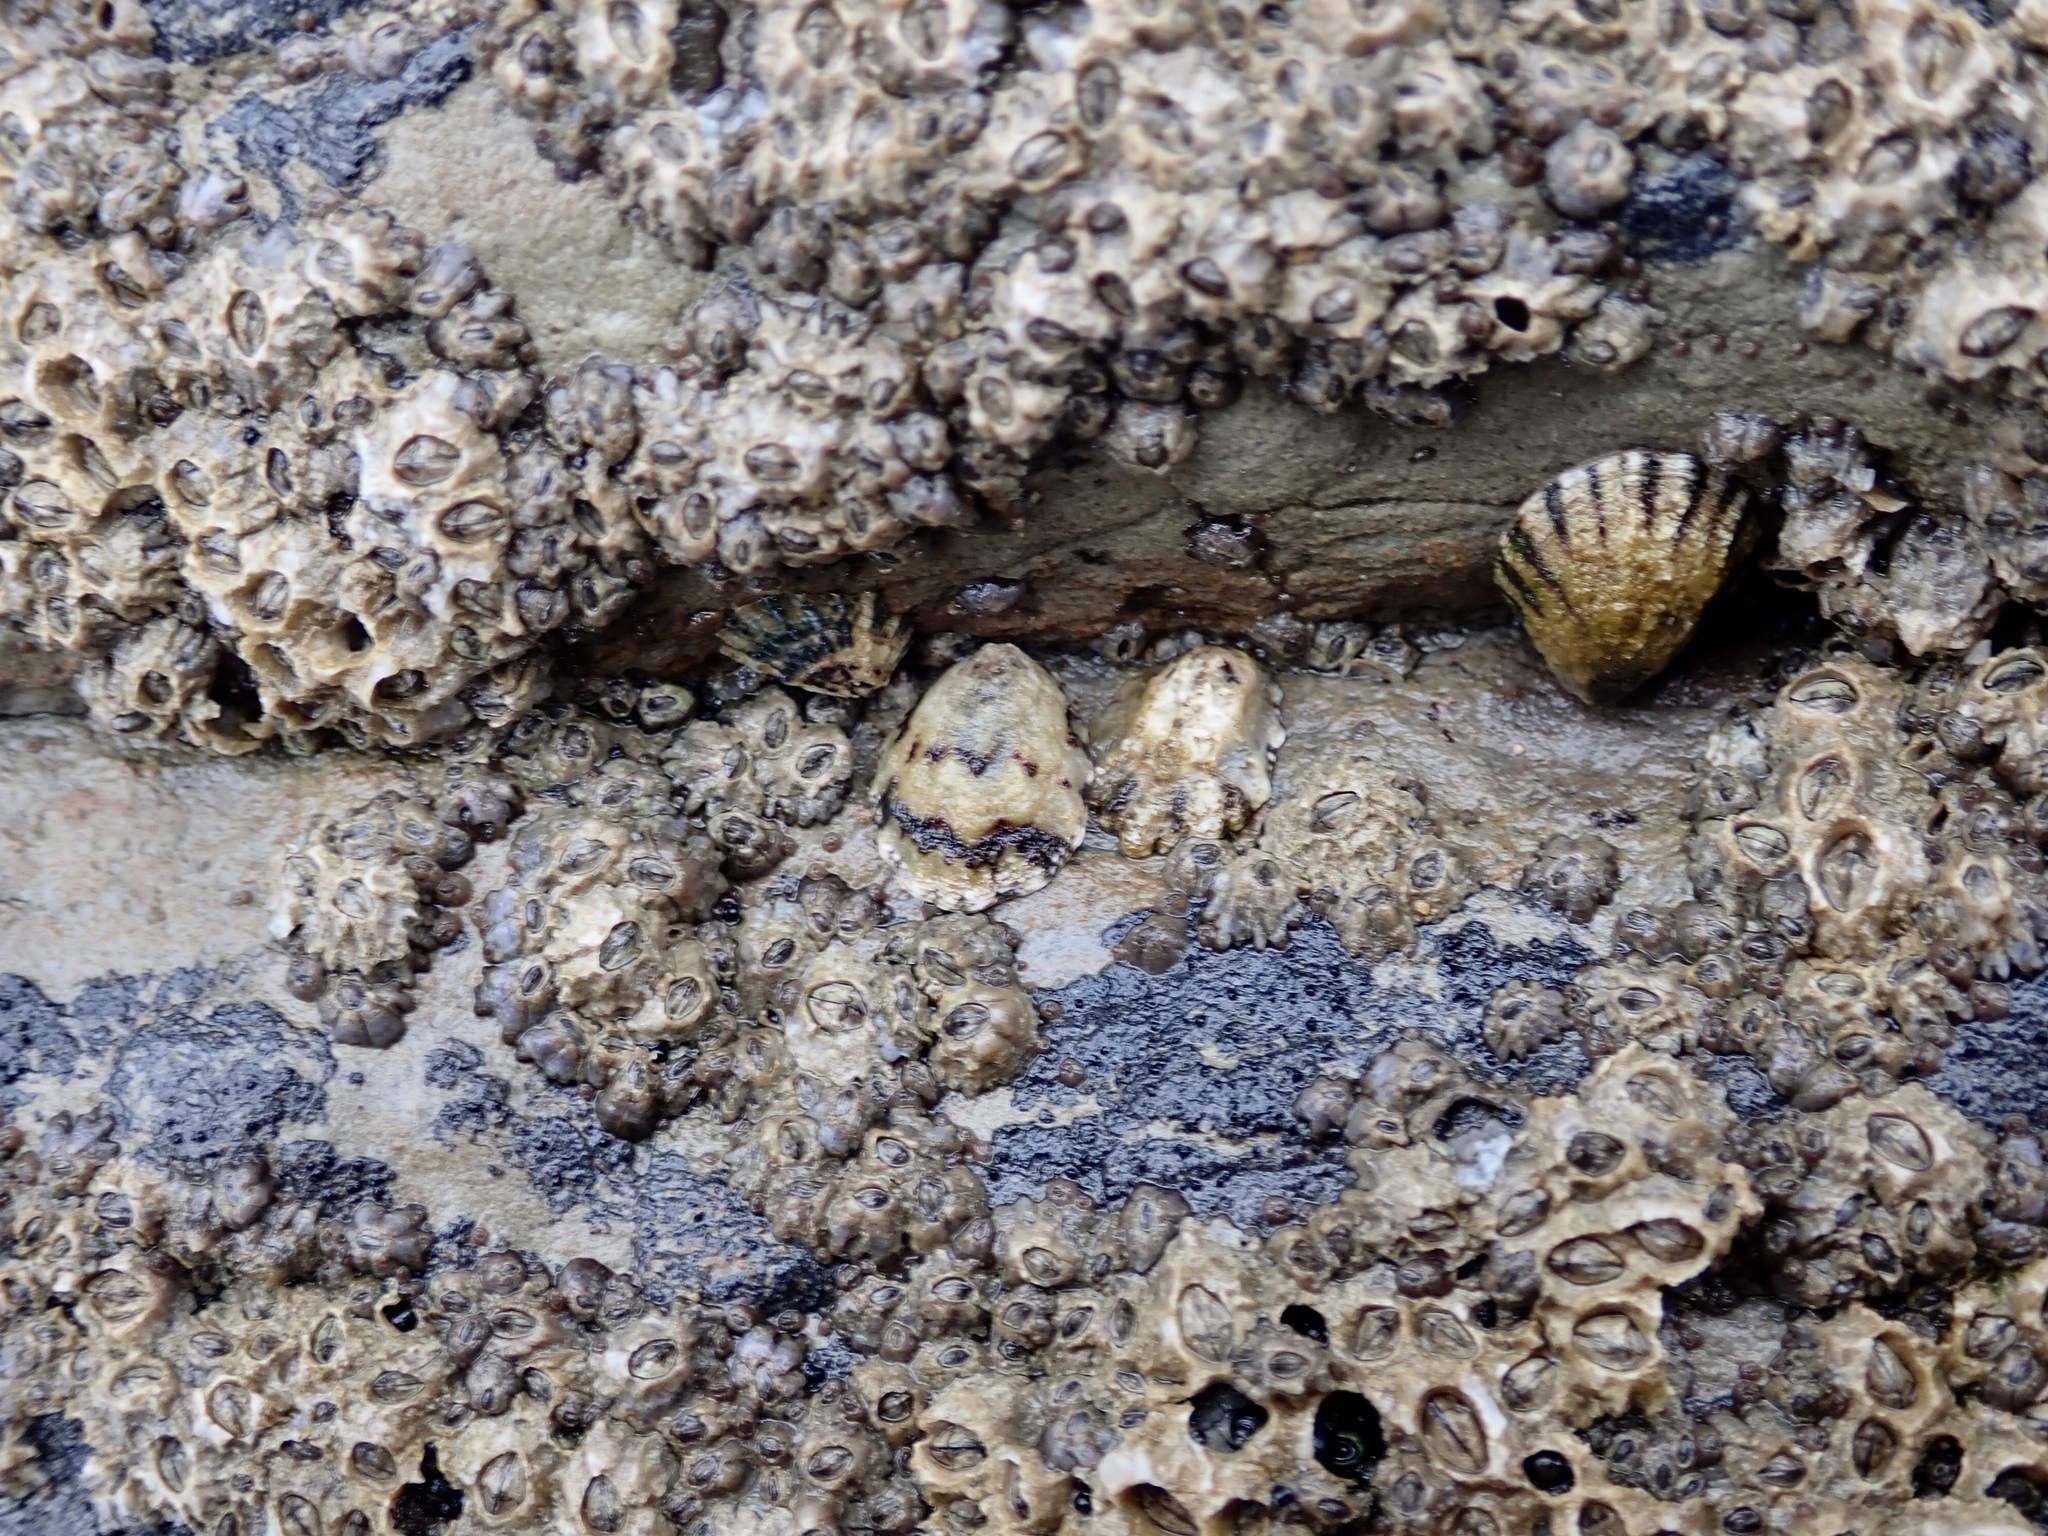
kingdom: Animalia
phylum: Mollusca
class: Gastropoda
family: Lottiidae
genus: Lottia
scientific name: Lottia digitalis
